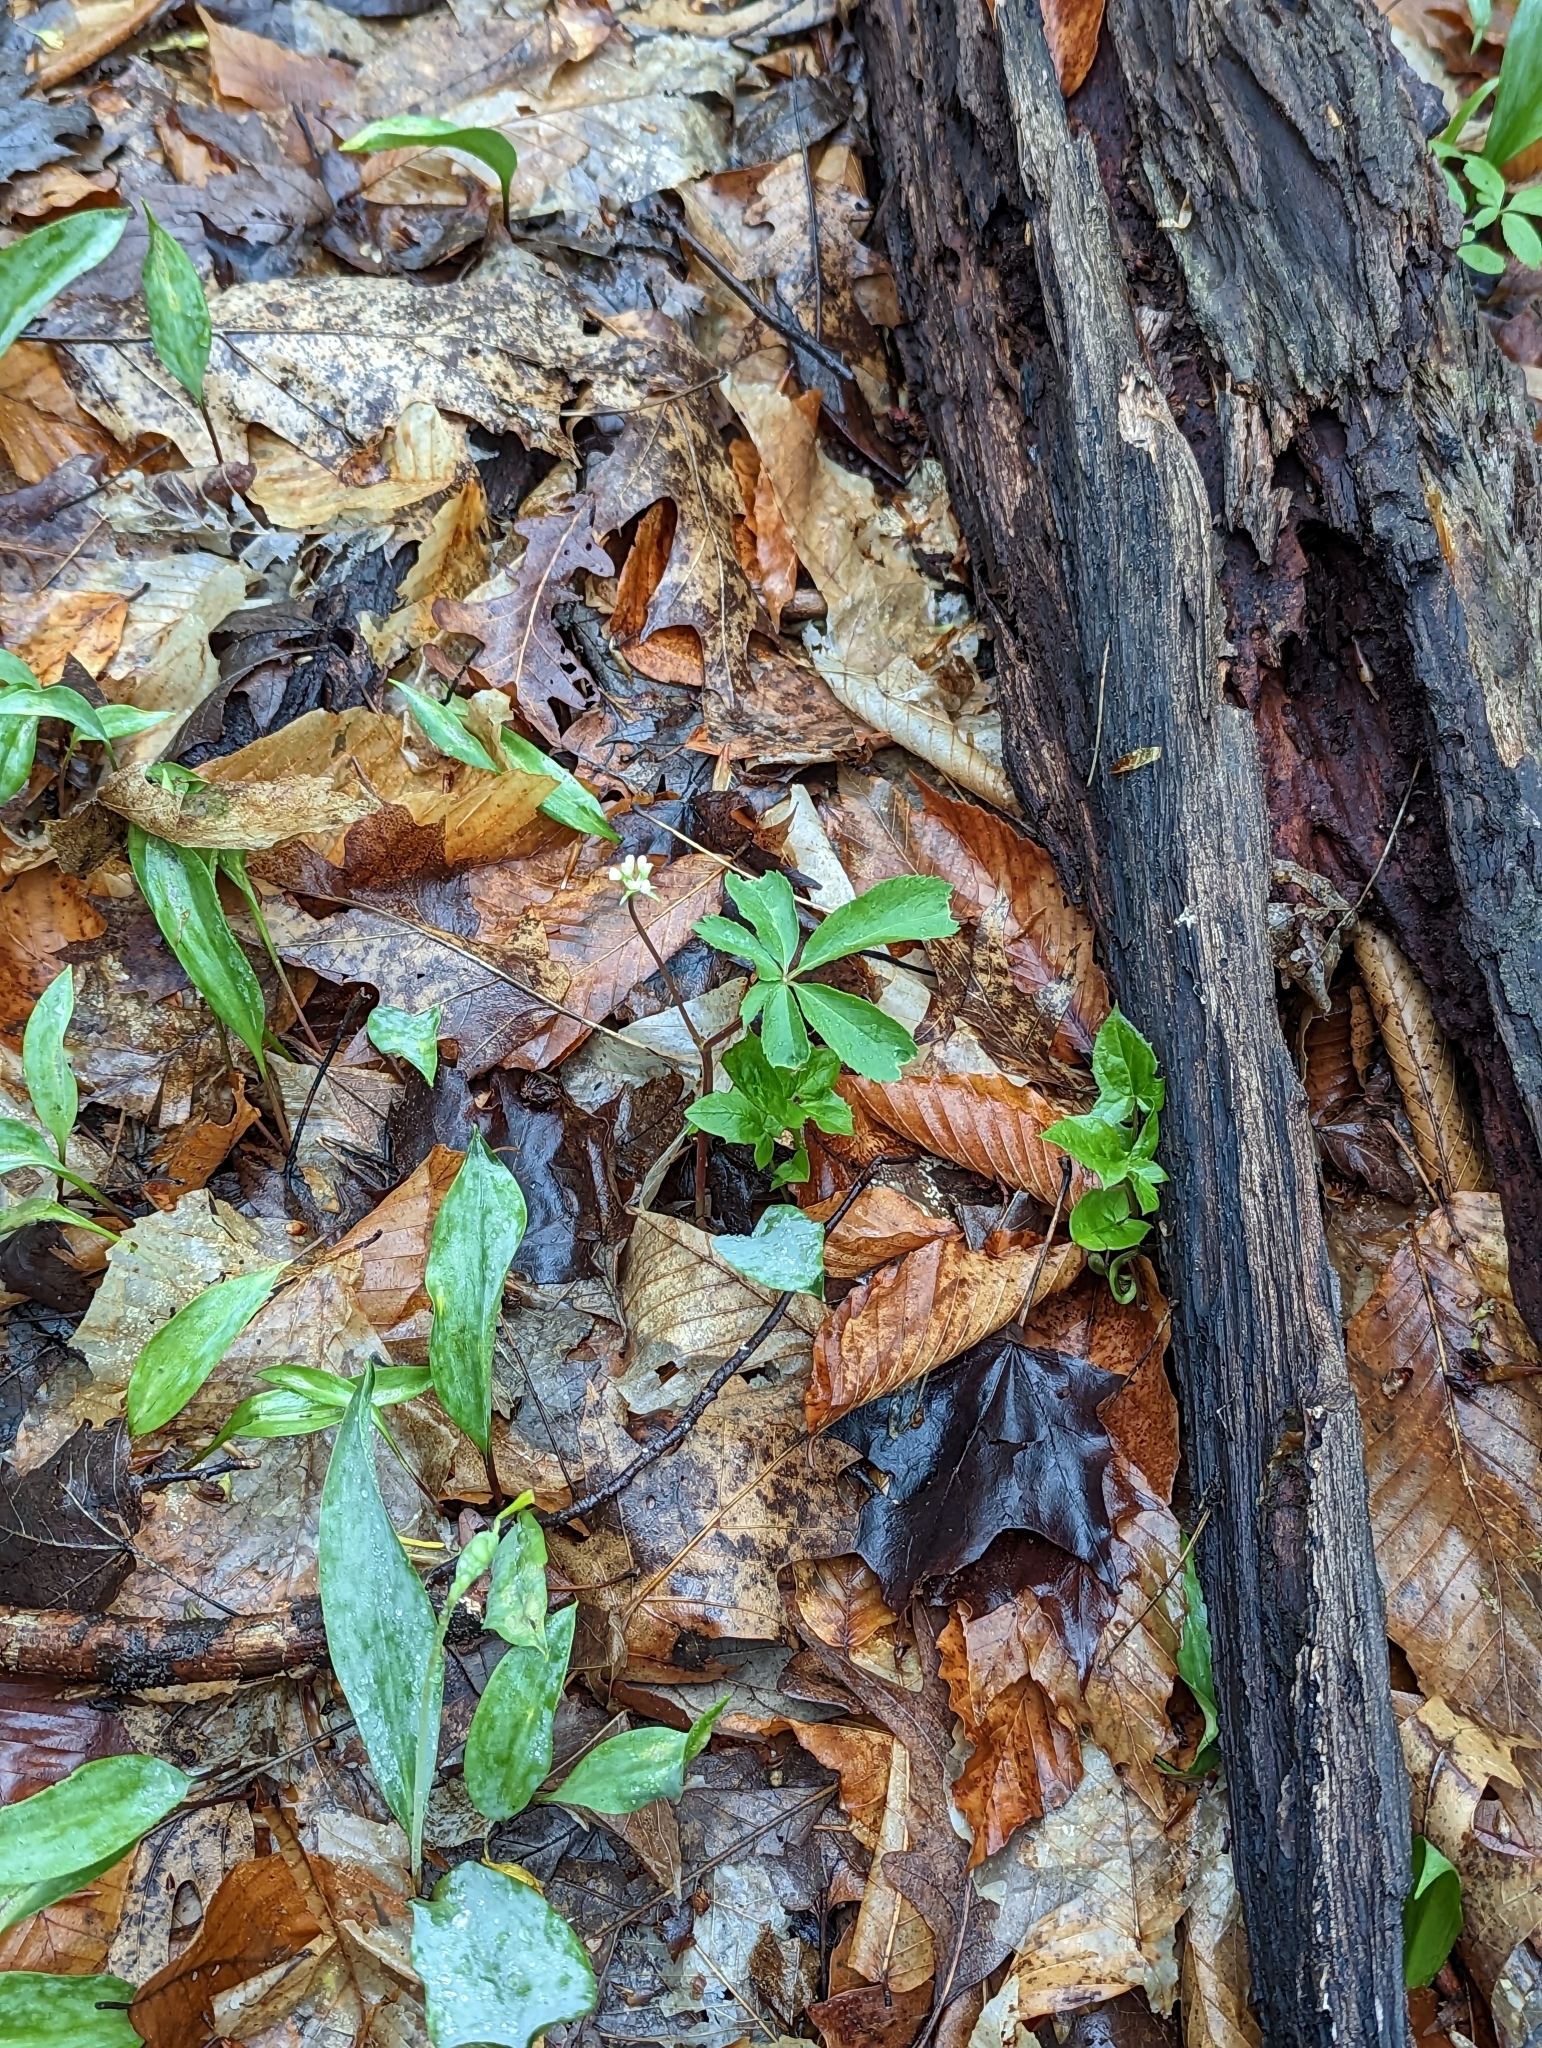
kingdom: Plantae
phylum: Tracheophyta
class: Magnoliopsida
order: Apiales
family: Araliaceae
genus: Panax
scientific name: Panax trifolius
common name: Dwarf ginseng
